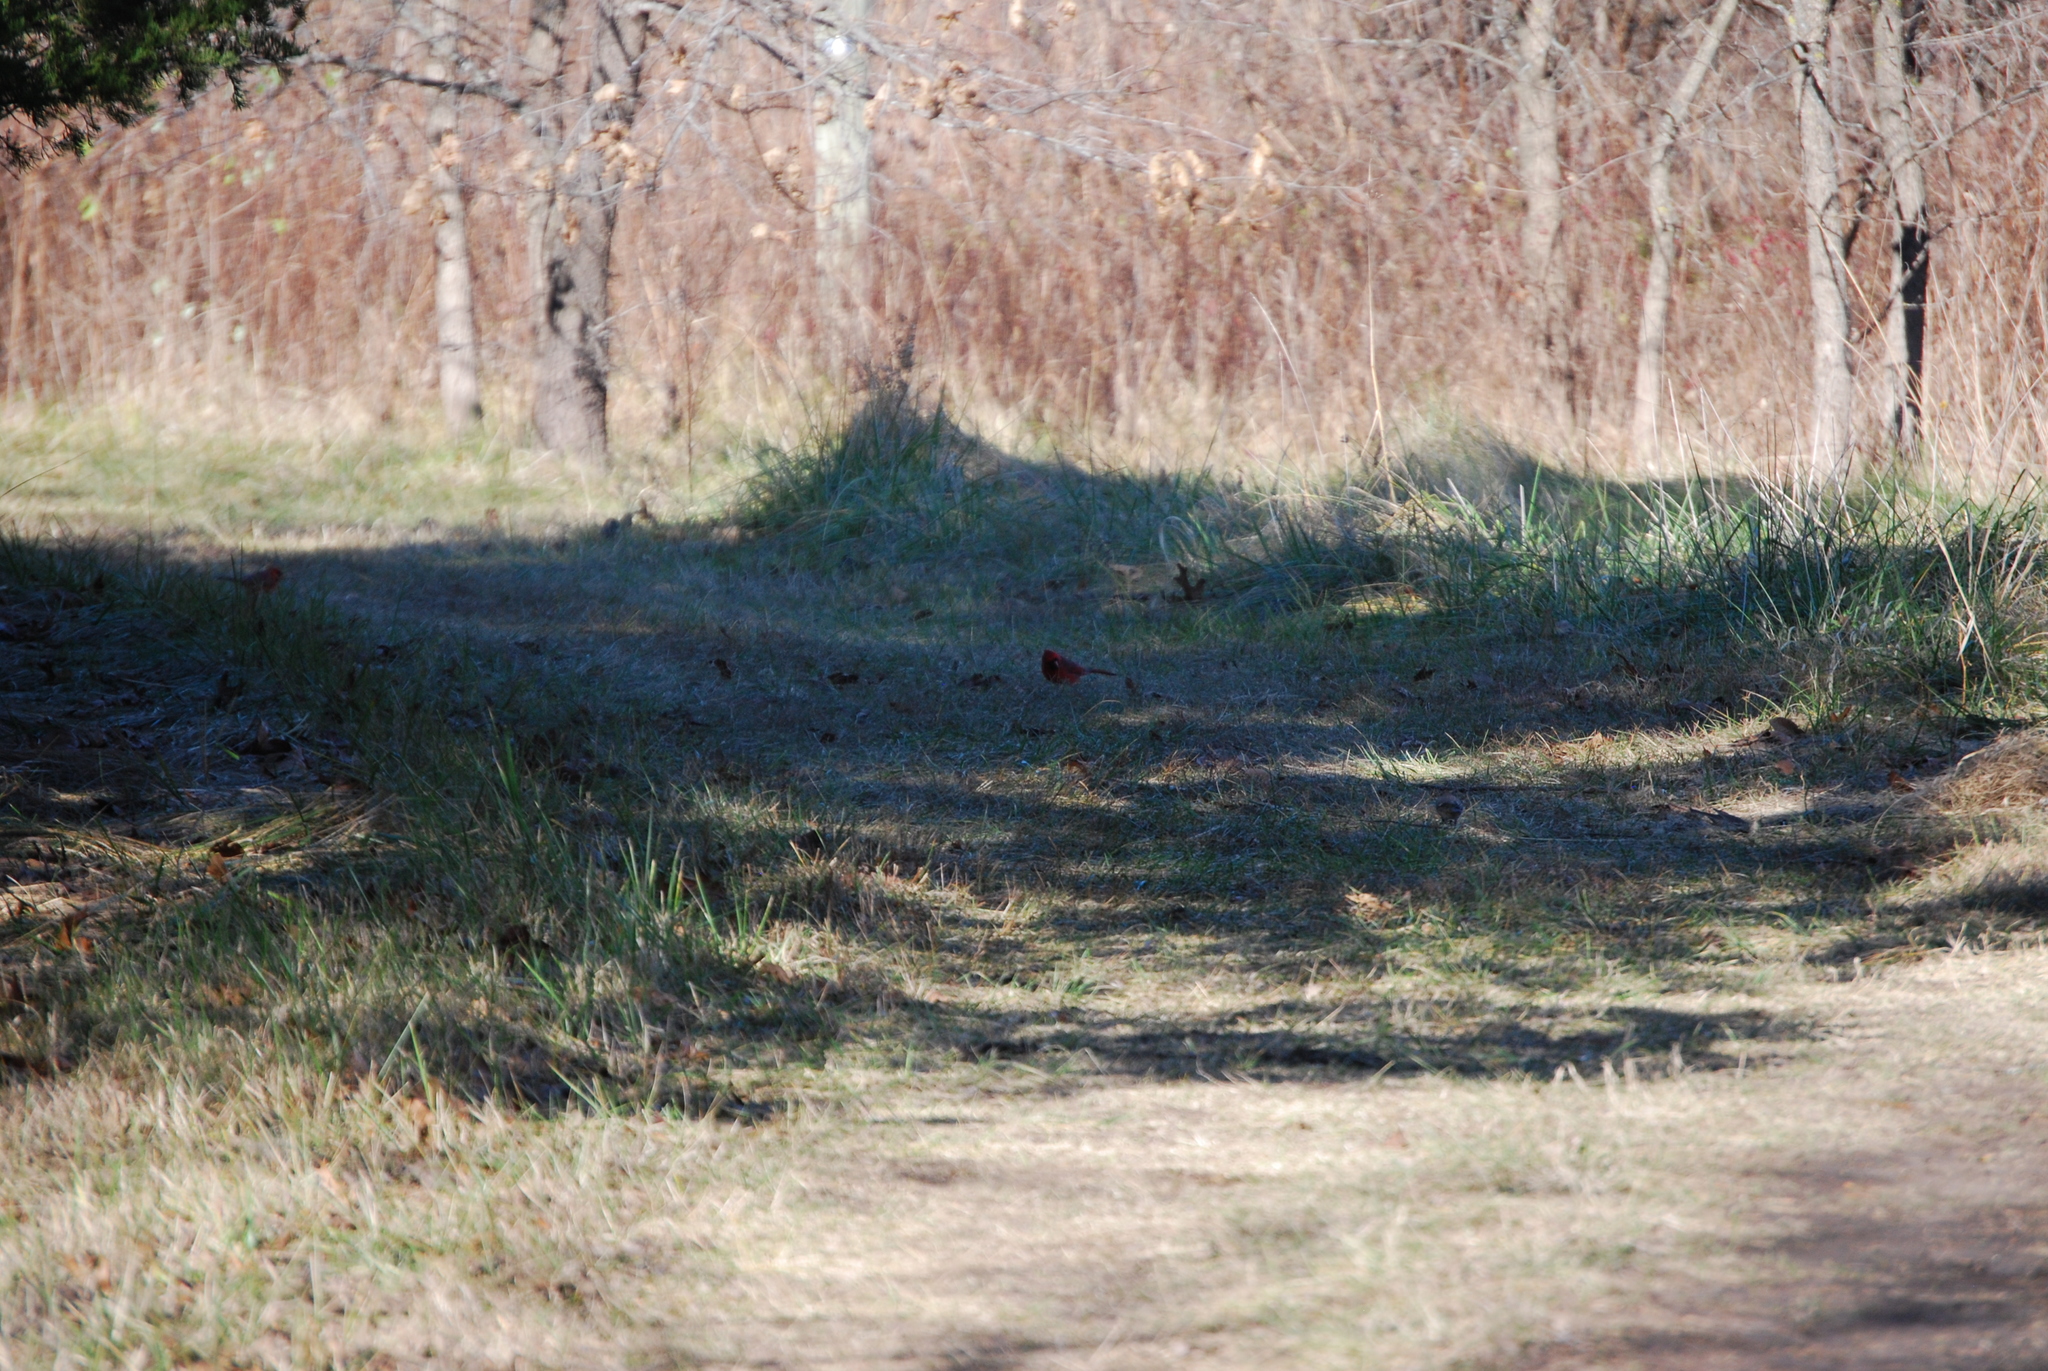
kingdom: Animalia
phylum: Chordata
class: Aves
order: Passeriformes
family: Cardinalidae
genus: Cardinalis
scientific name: Cardinalis cardinalis
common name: Northern cardinal
